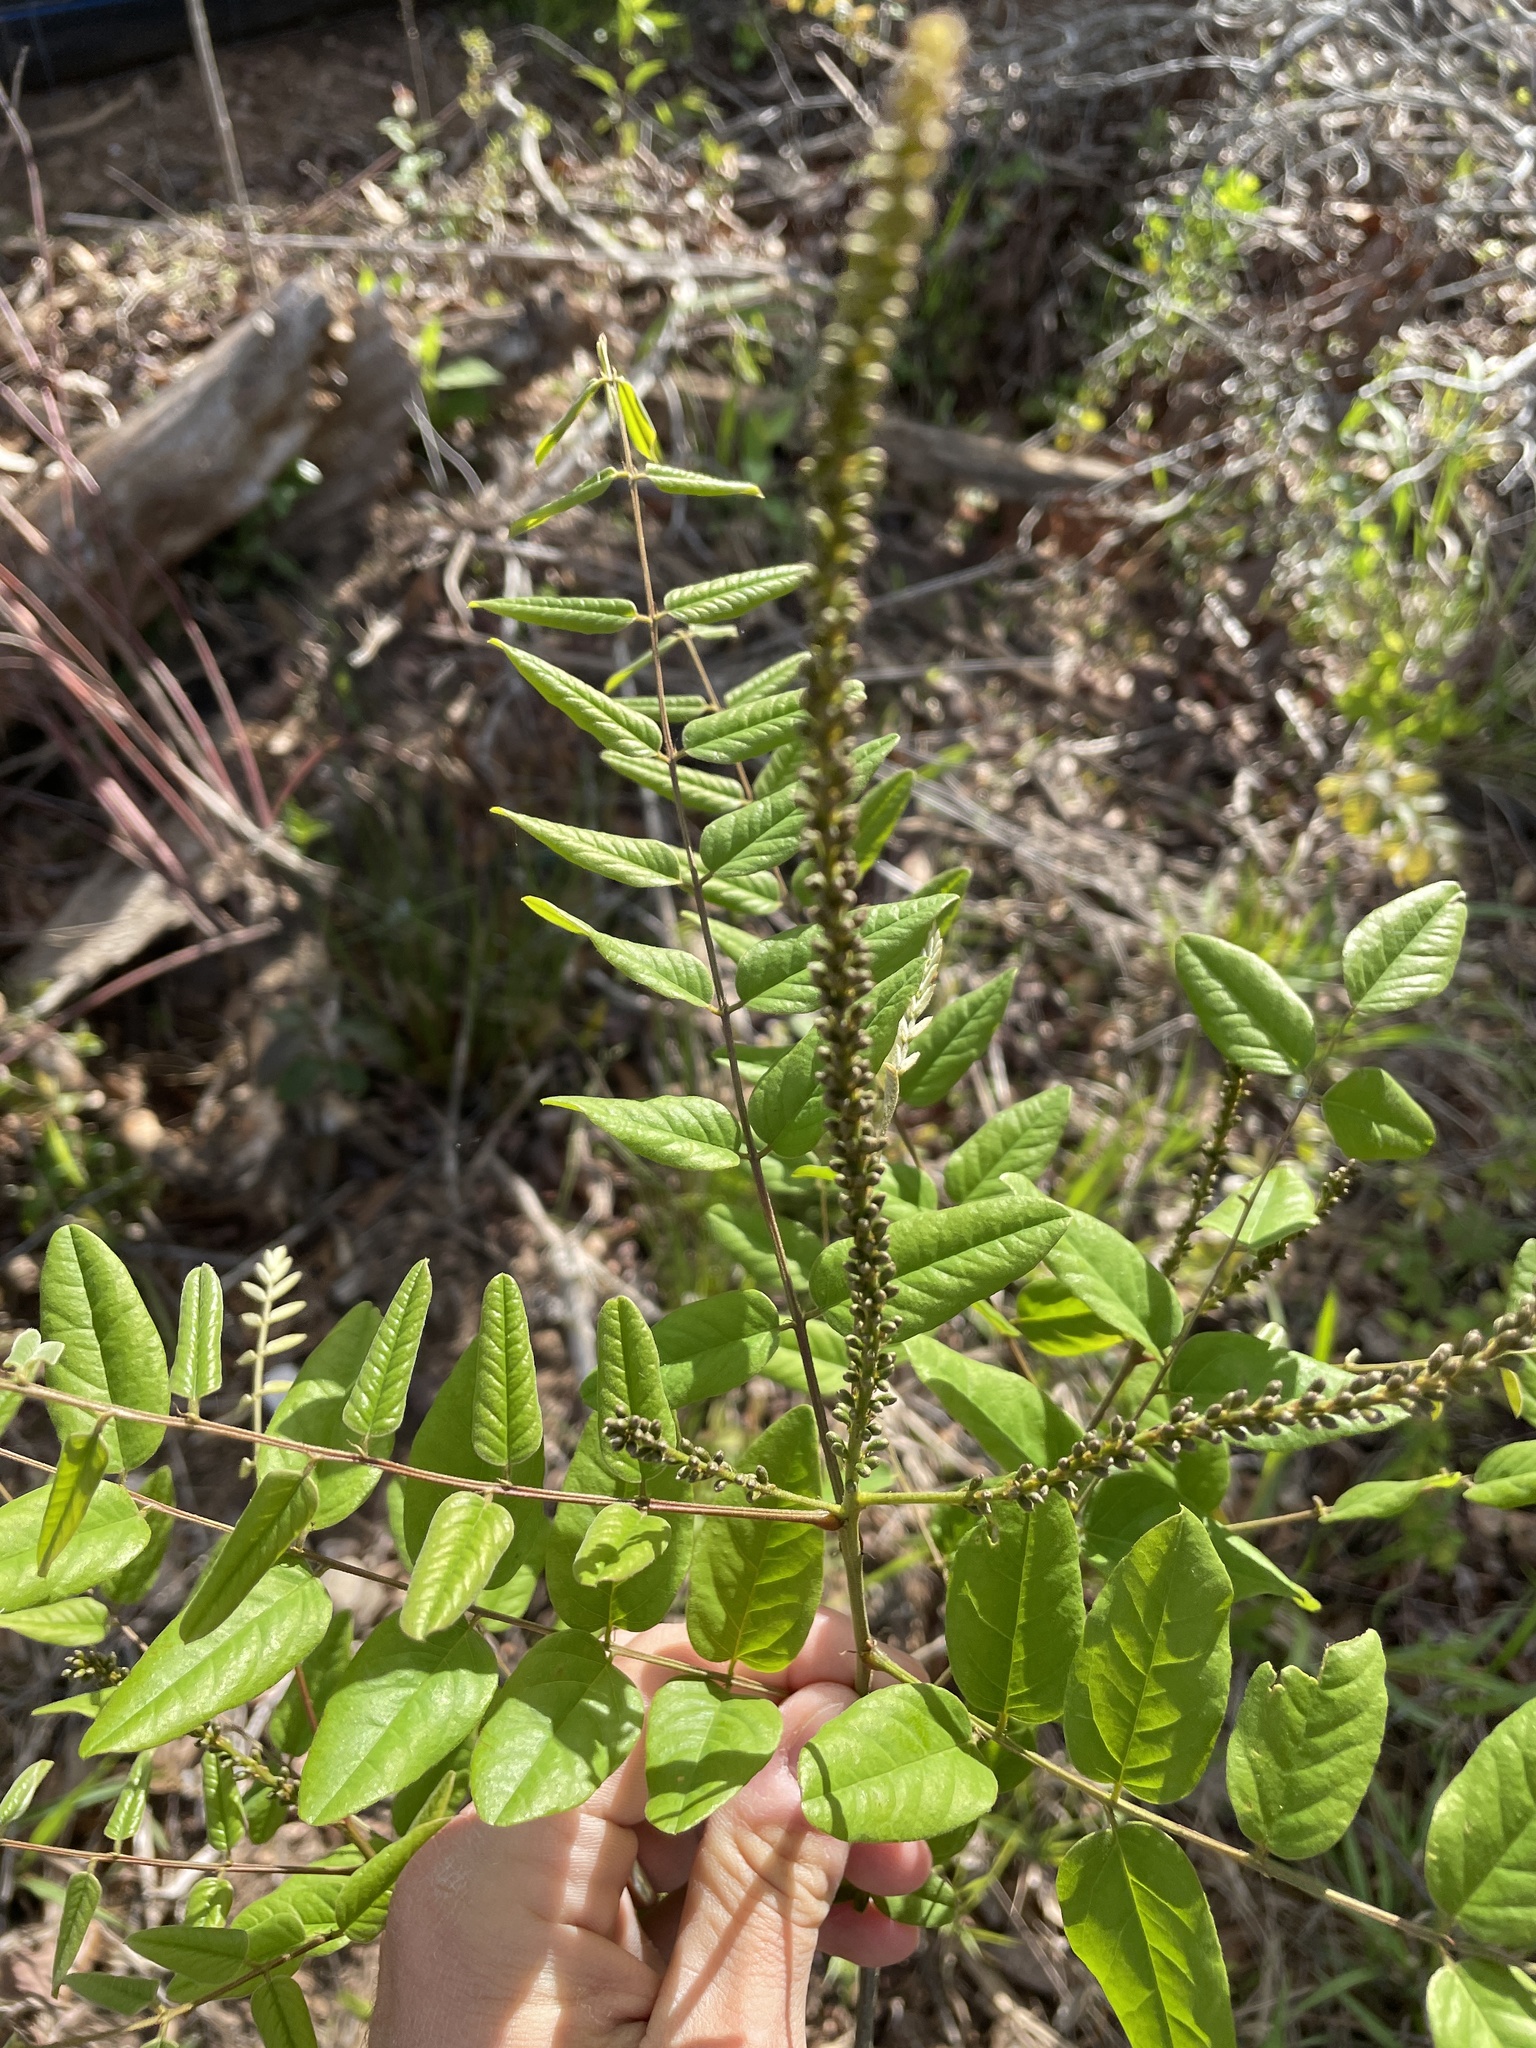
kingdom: Plantae
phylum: Tracheophyta
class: Magnoliopsida
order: Fabales
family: Fabaceae
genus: Amorpha
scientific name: Amorpha fruticosa
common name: False indigo
